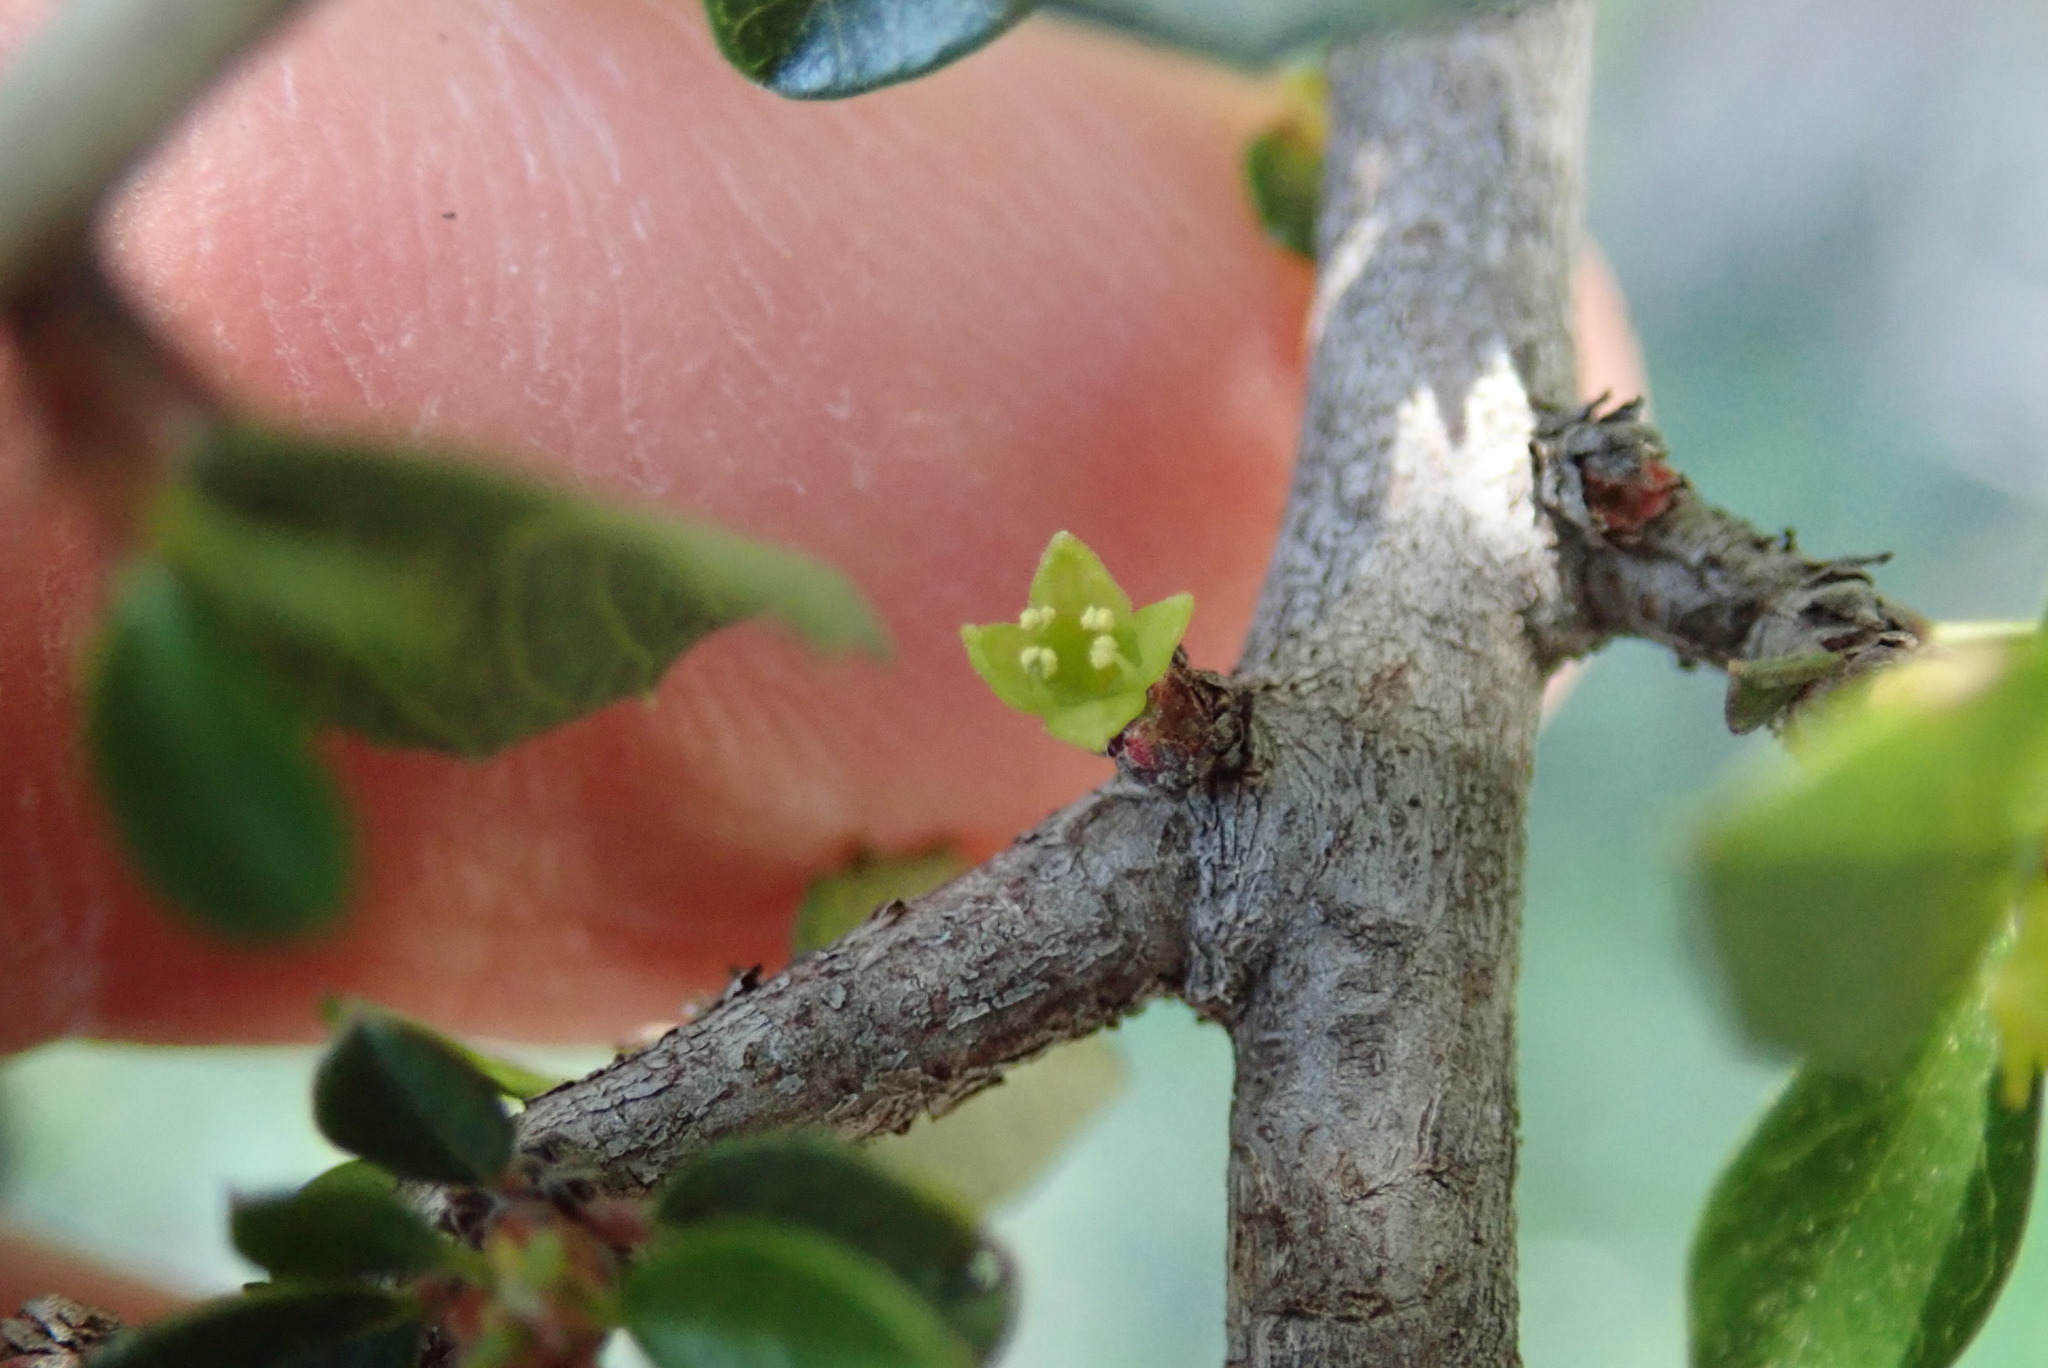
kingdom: Plantae
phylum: Tracheophyta
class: Magnoliopsida
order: Rosales
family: Rhamnaceae
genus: Endotropis
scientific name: Endotropis crocea
